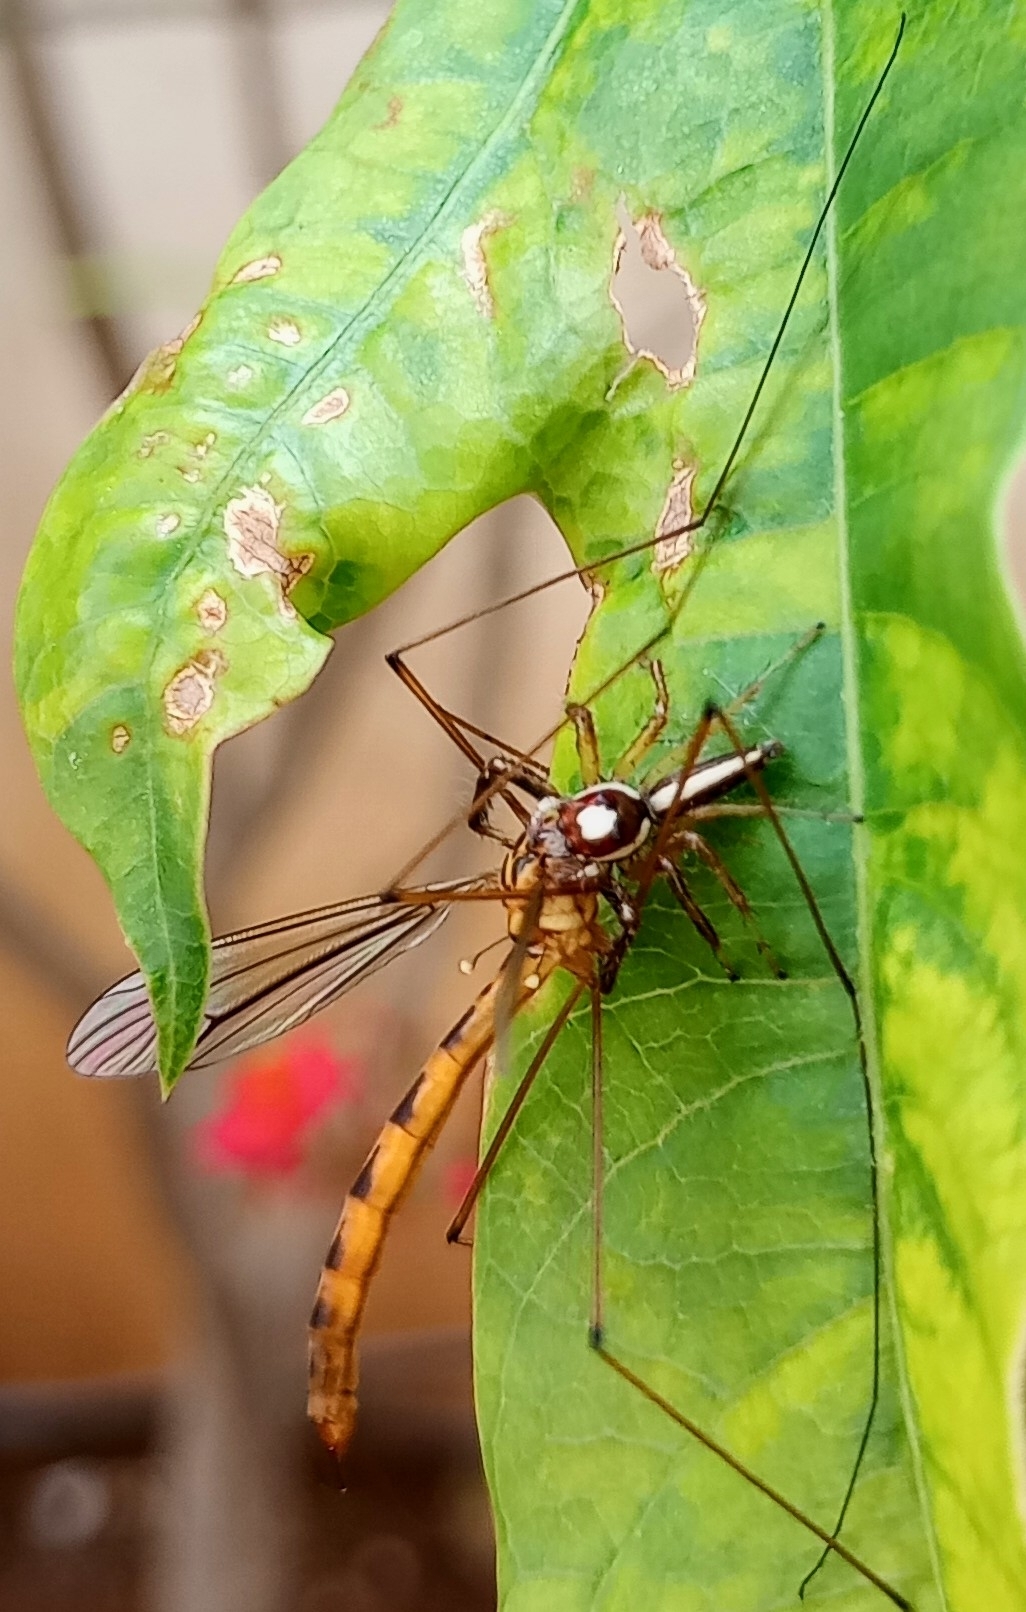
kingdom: Animalia
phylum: Arthropoda
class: Arachnida
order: Araneae
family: Salticidae
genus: Telamonia
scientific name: Telamonia dimidiata
